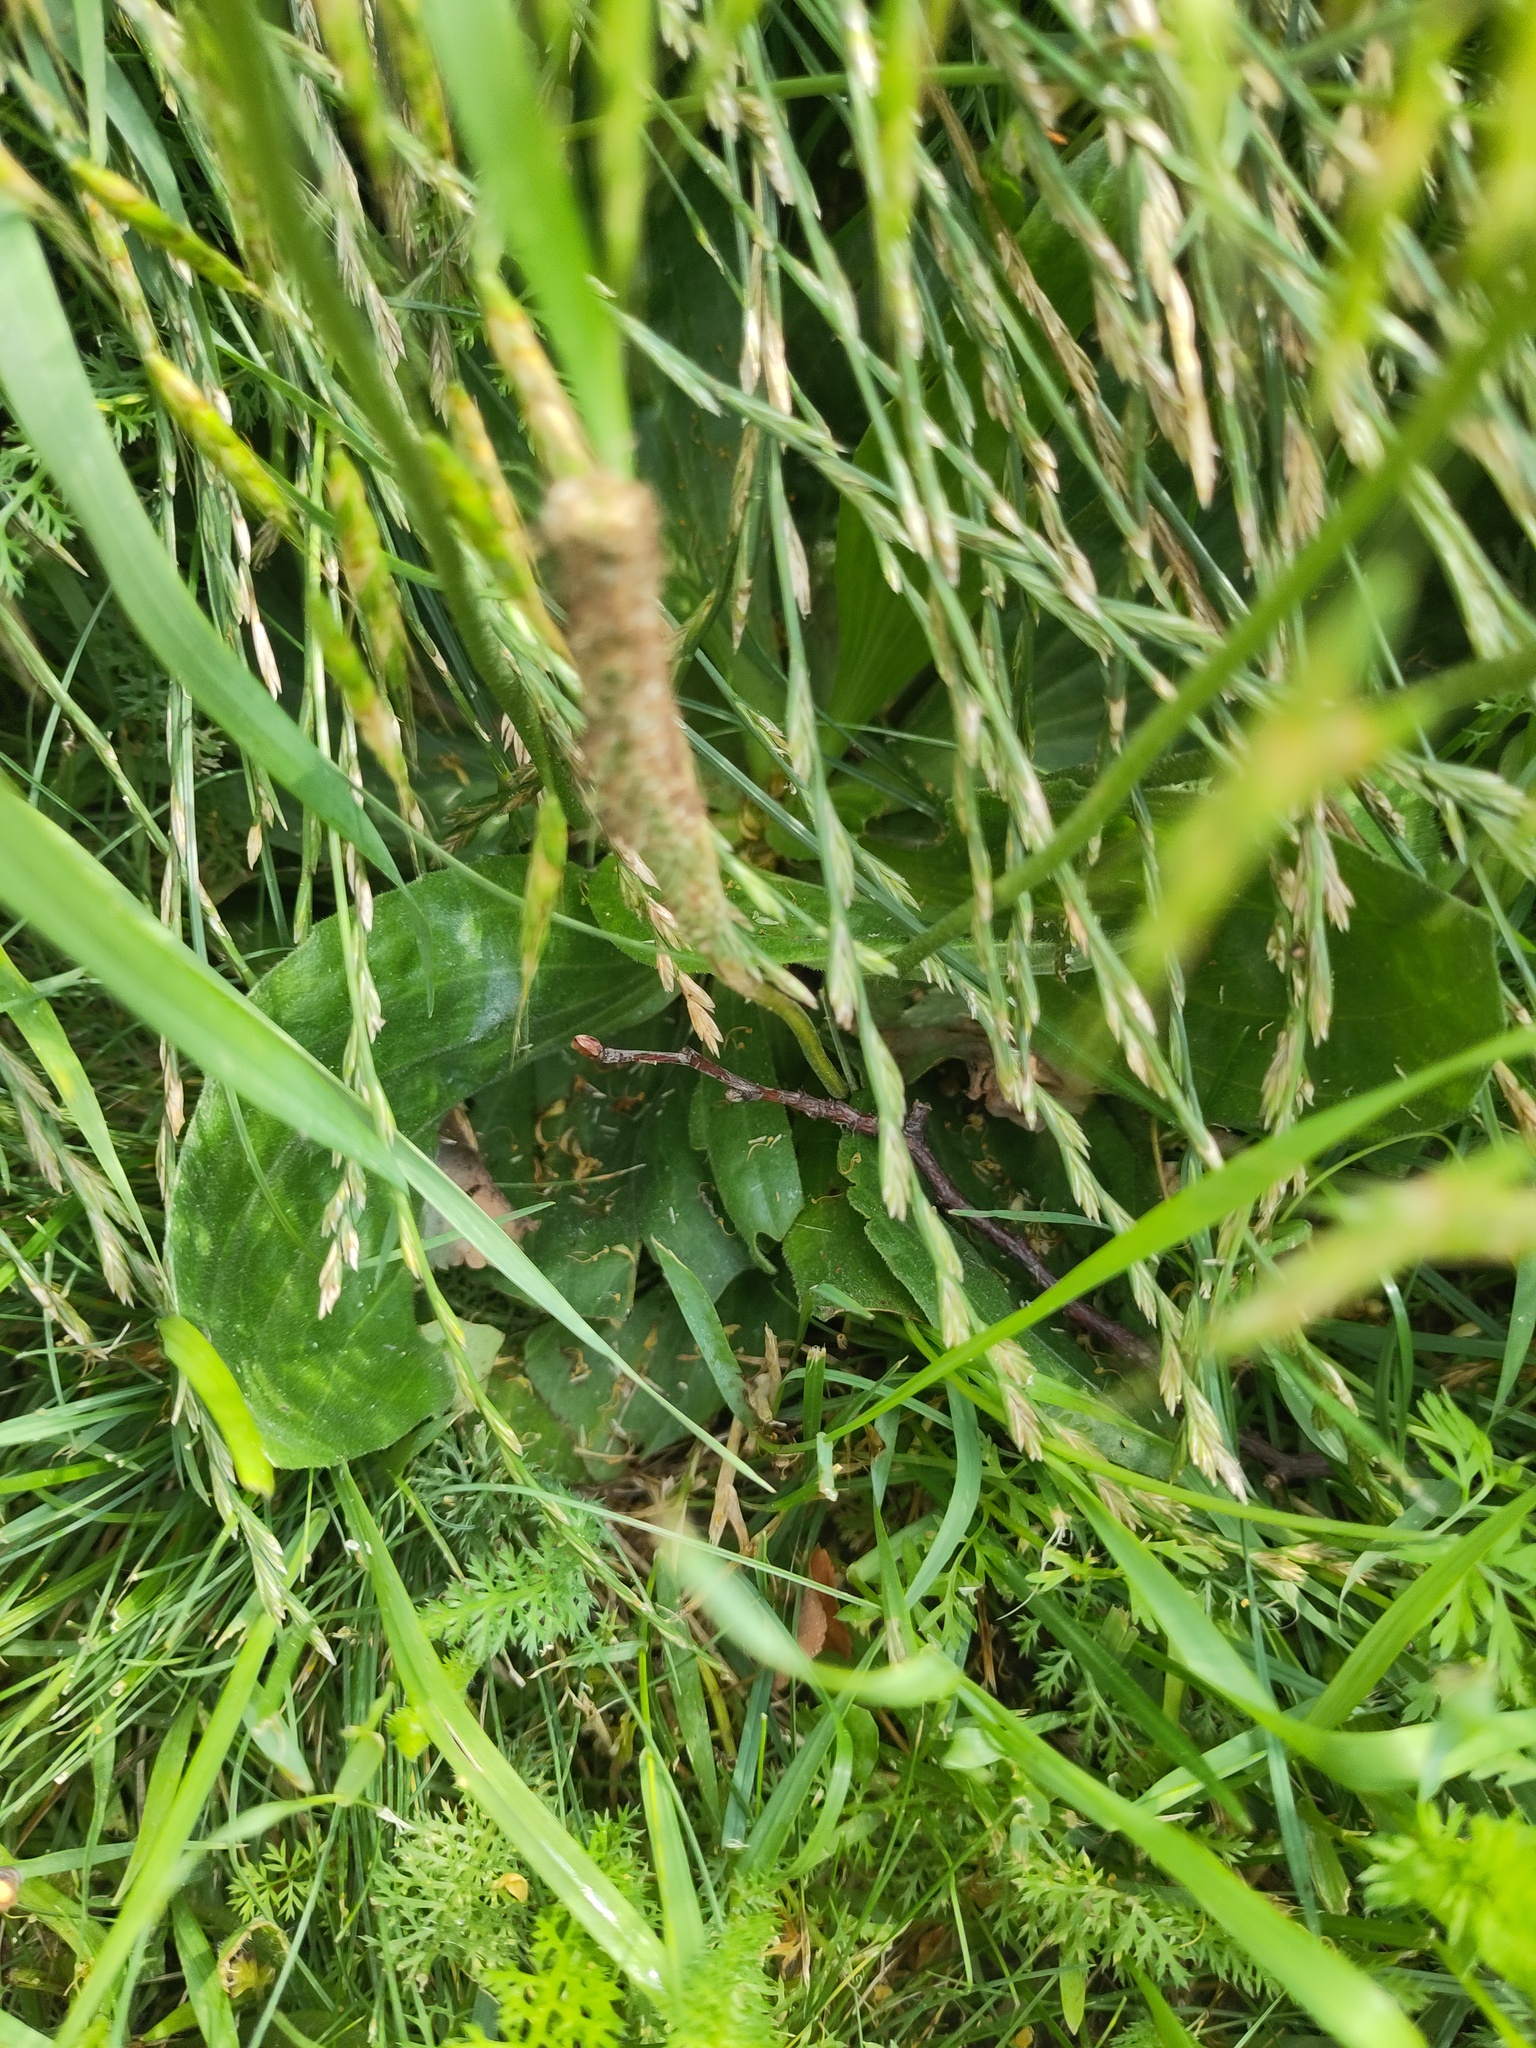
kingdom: Plantae
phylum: Tracheophyta
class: Magnoliopsida
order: Lamiales
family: Plantaginaceae
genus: Plantago
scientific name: Plantago media
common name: Hoary plantain
